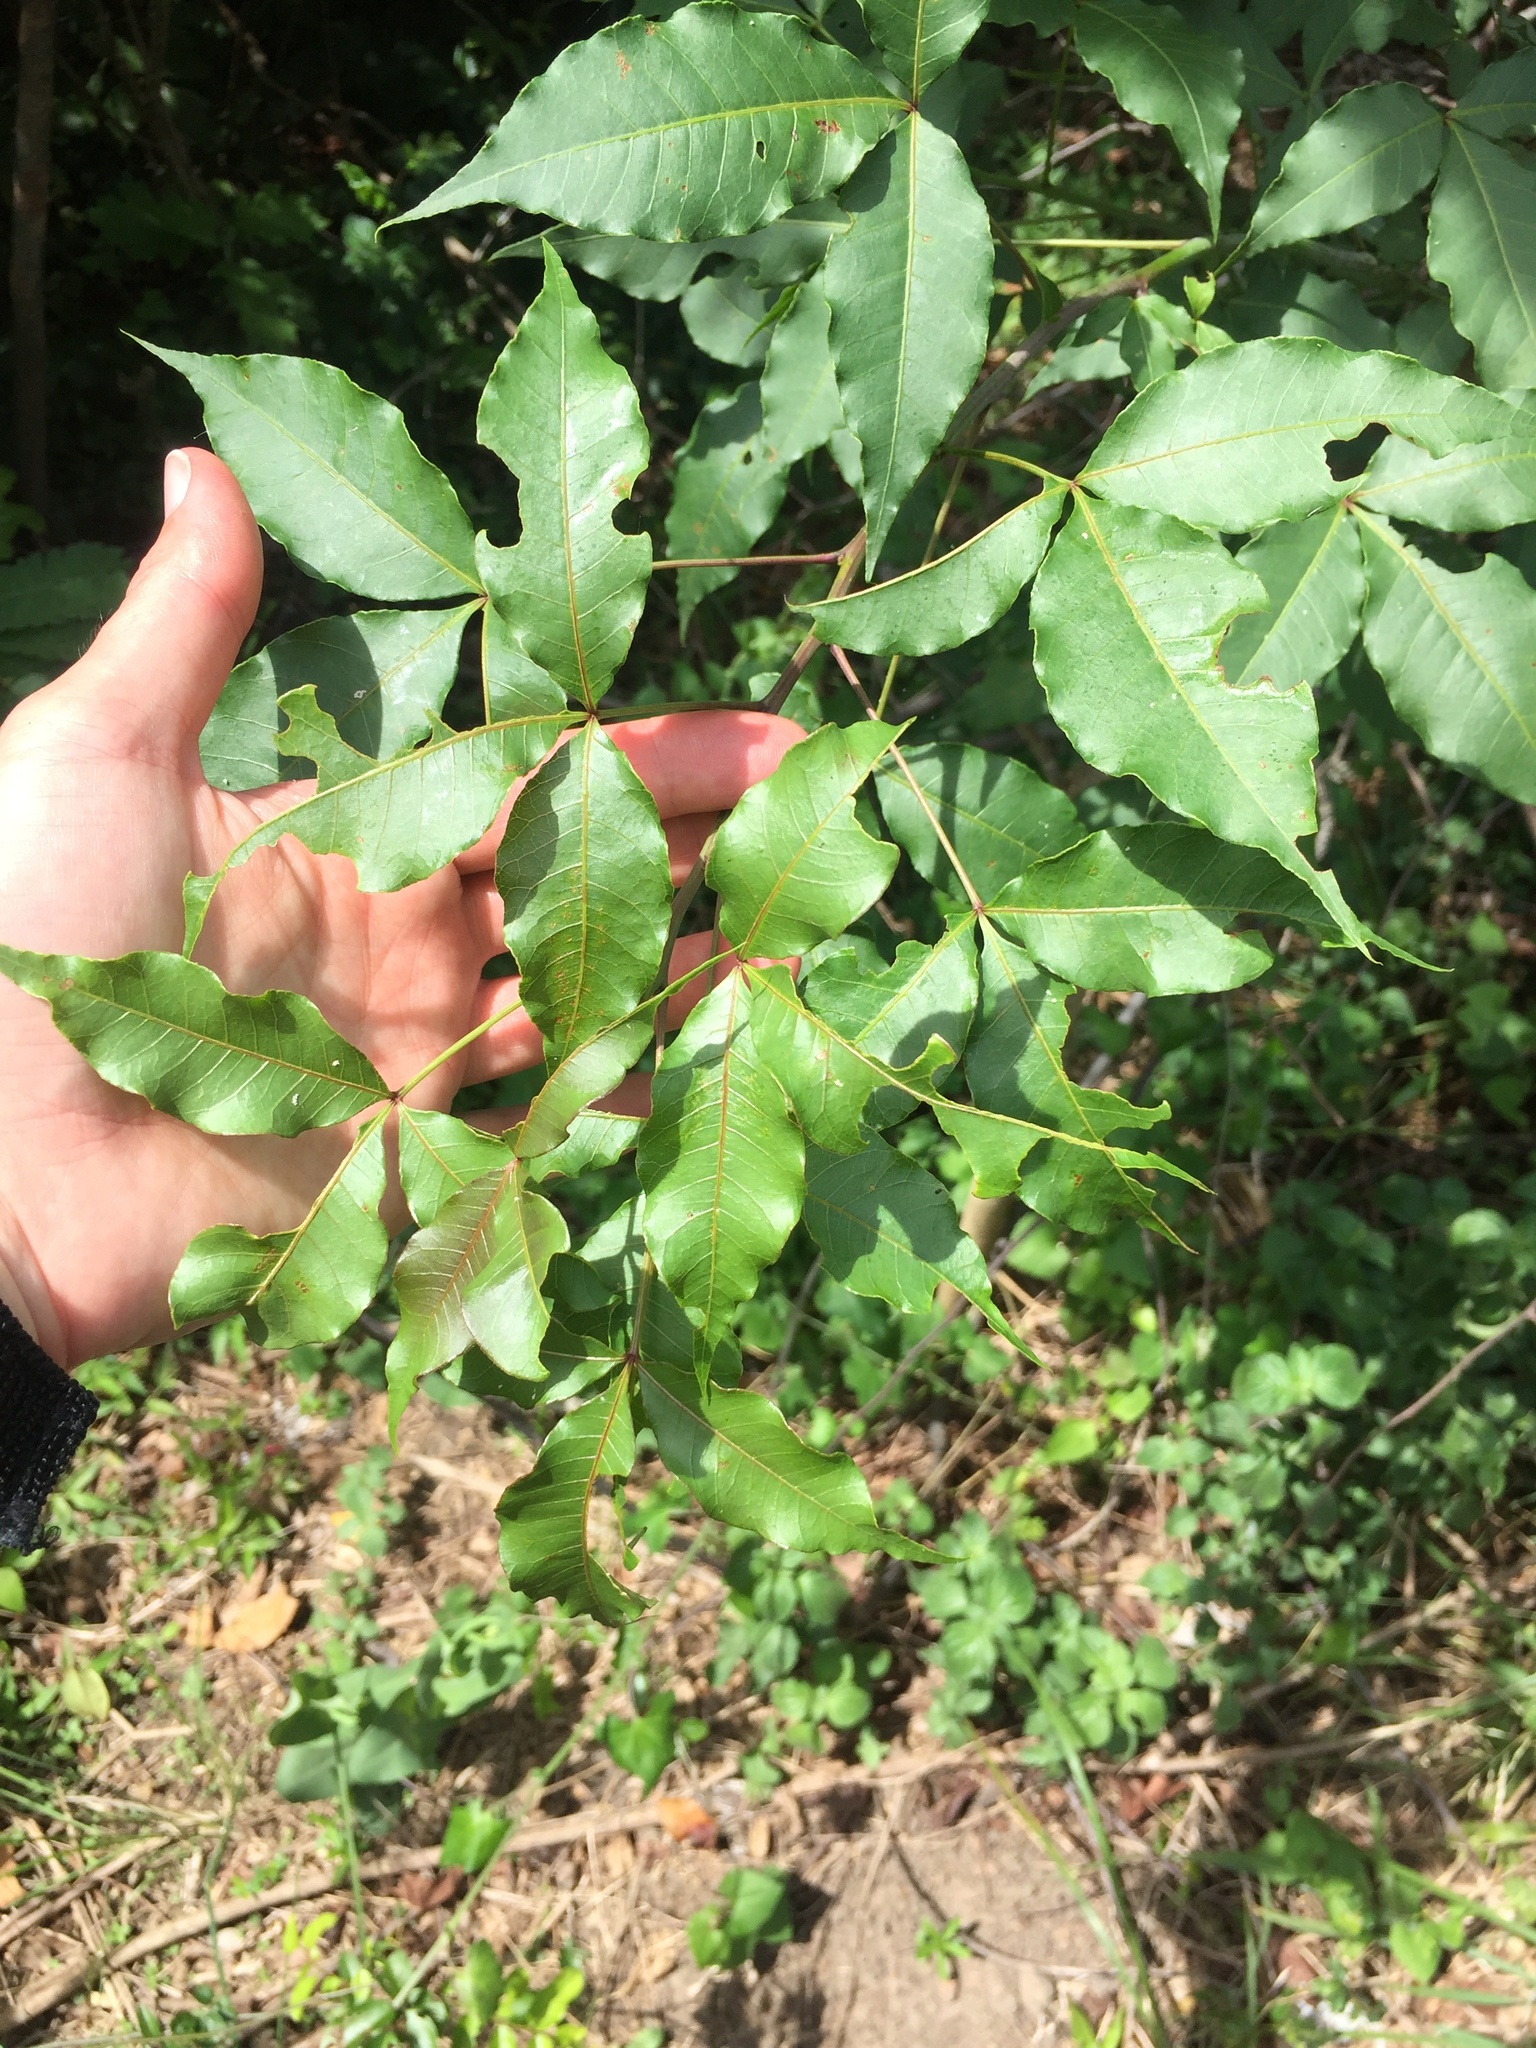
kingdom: Plantae
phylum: Tracheophyta
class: Magnoliopsida
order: Sapindales
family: Anacardiaceae
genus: Searsia
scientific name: Searsia chirindensis
